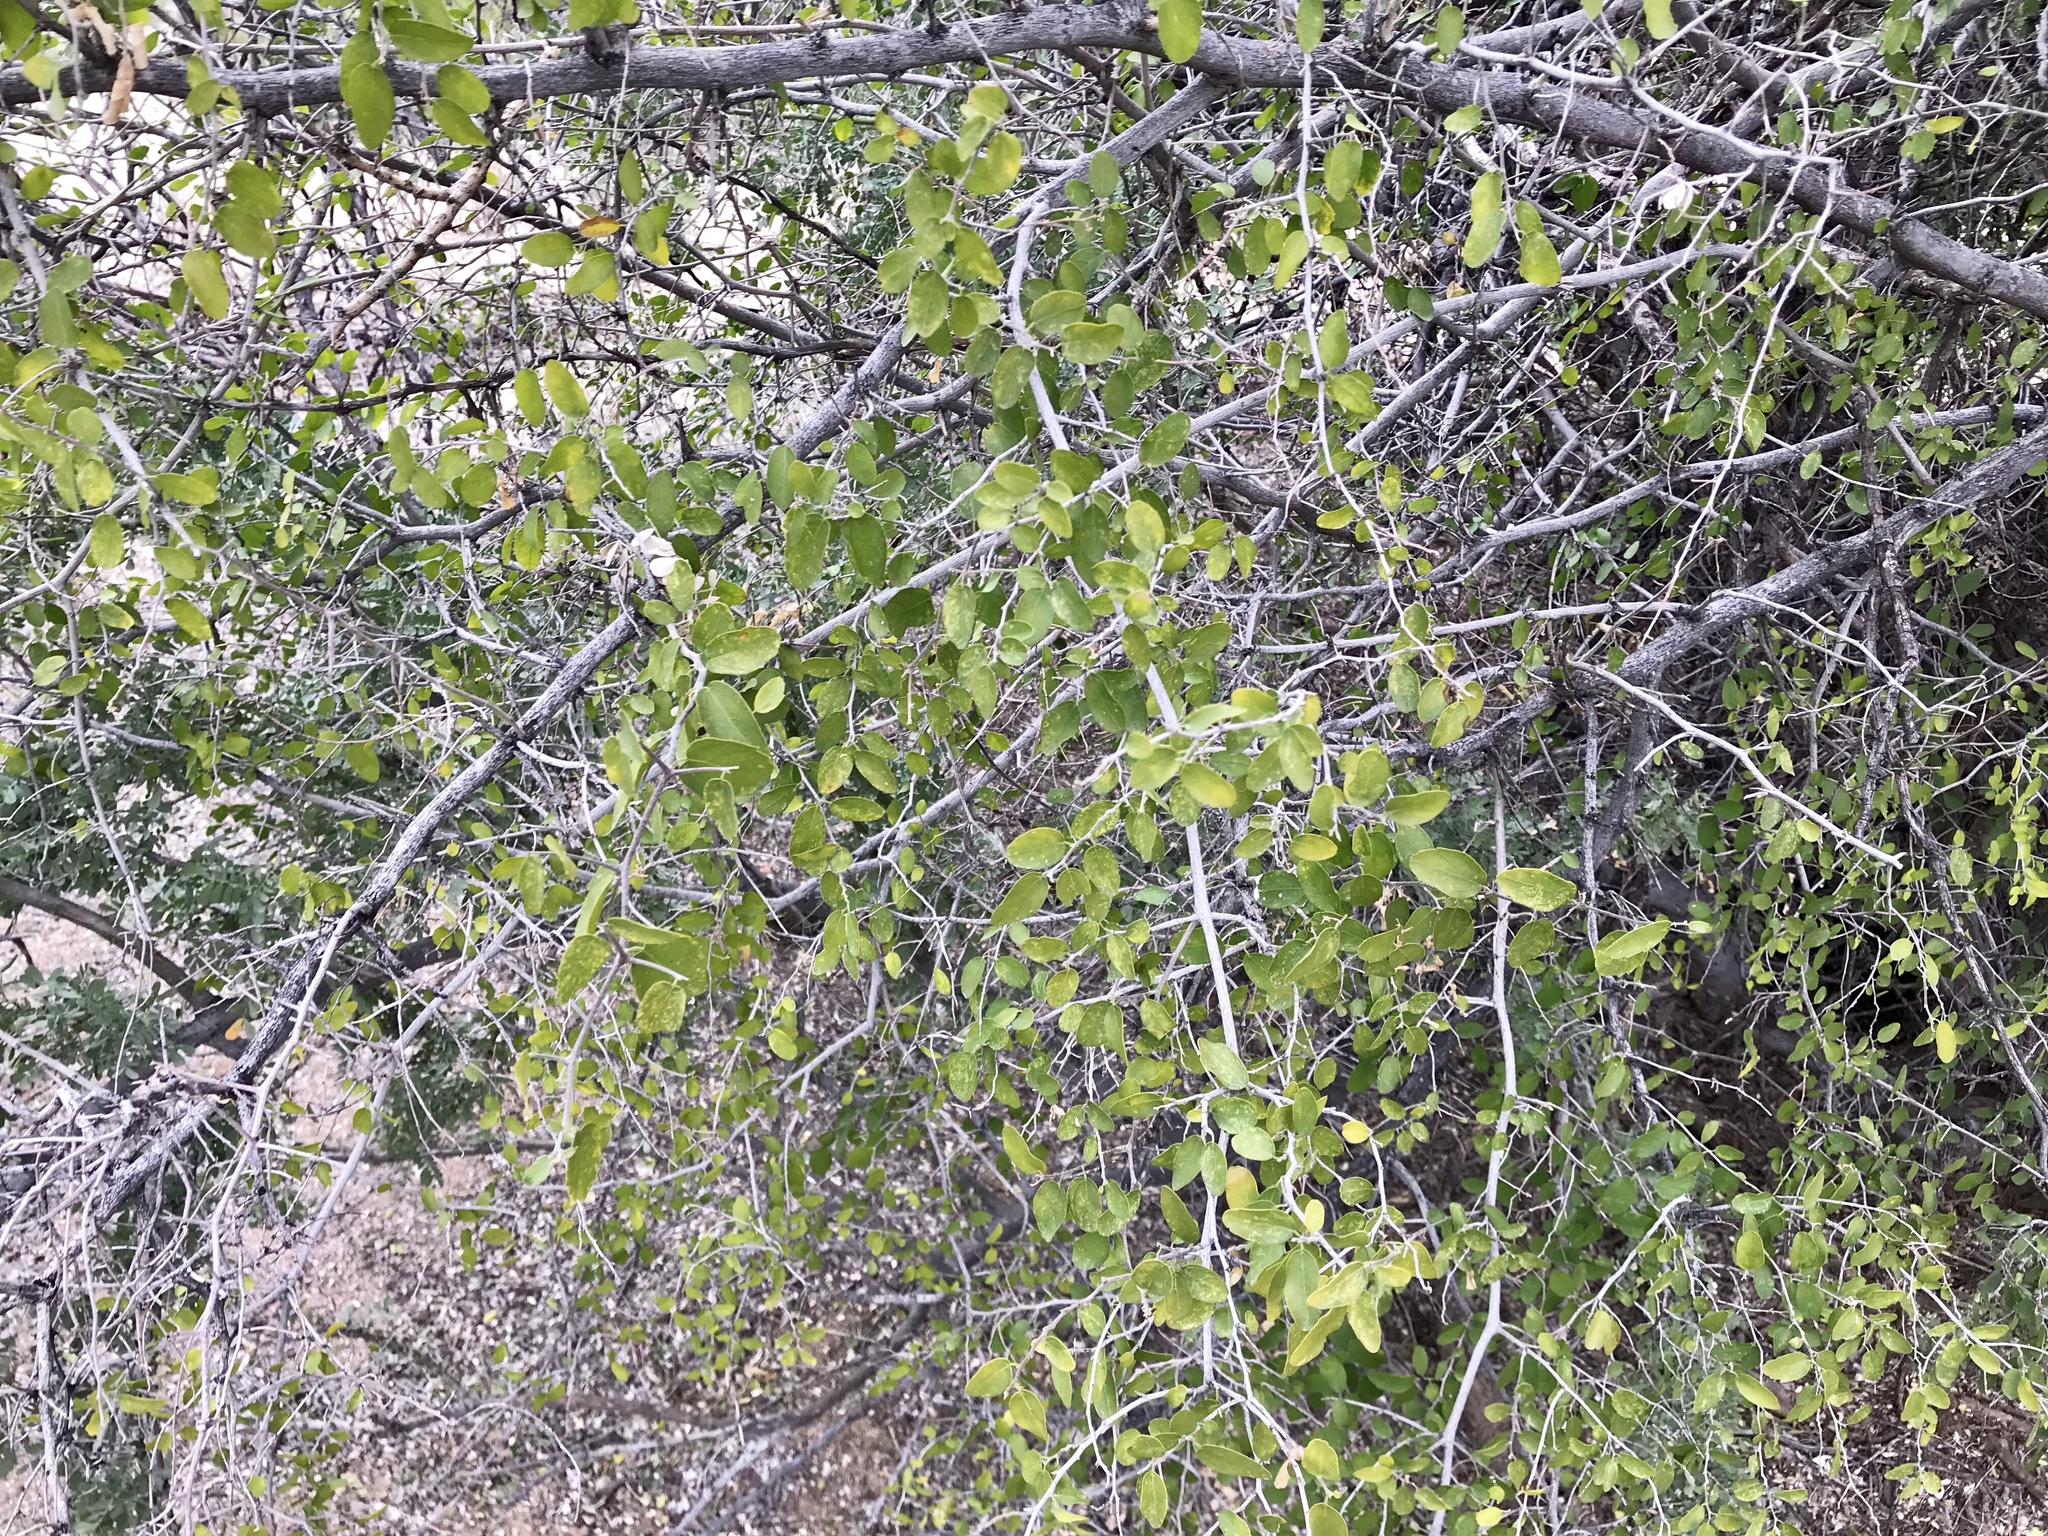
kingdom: Plantae
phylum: Tracheophyta
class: Magnoliopsida
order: Rosales
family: Cannabaceae
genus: Celtis
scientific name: Celtis pallida
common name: Desert hackberry
